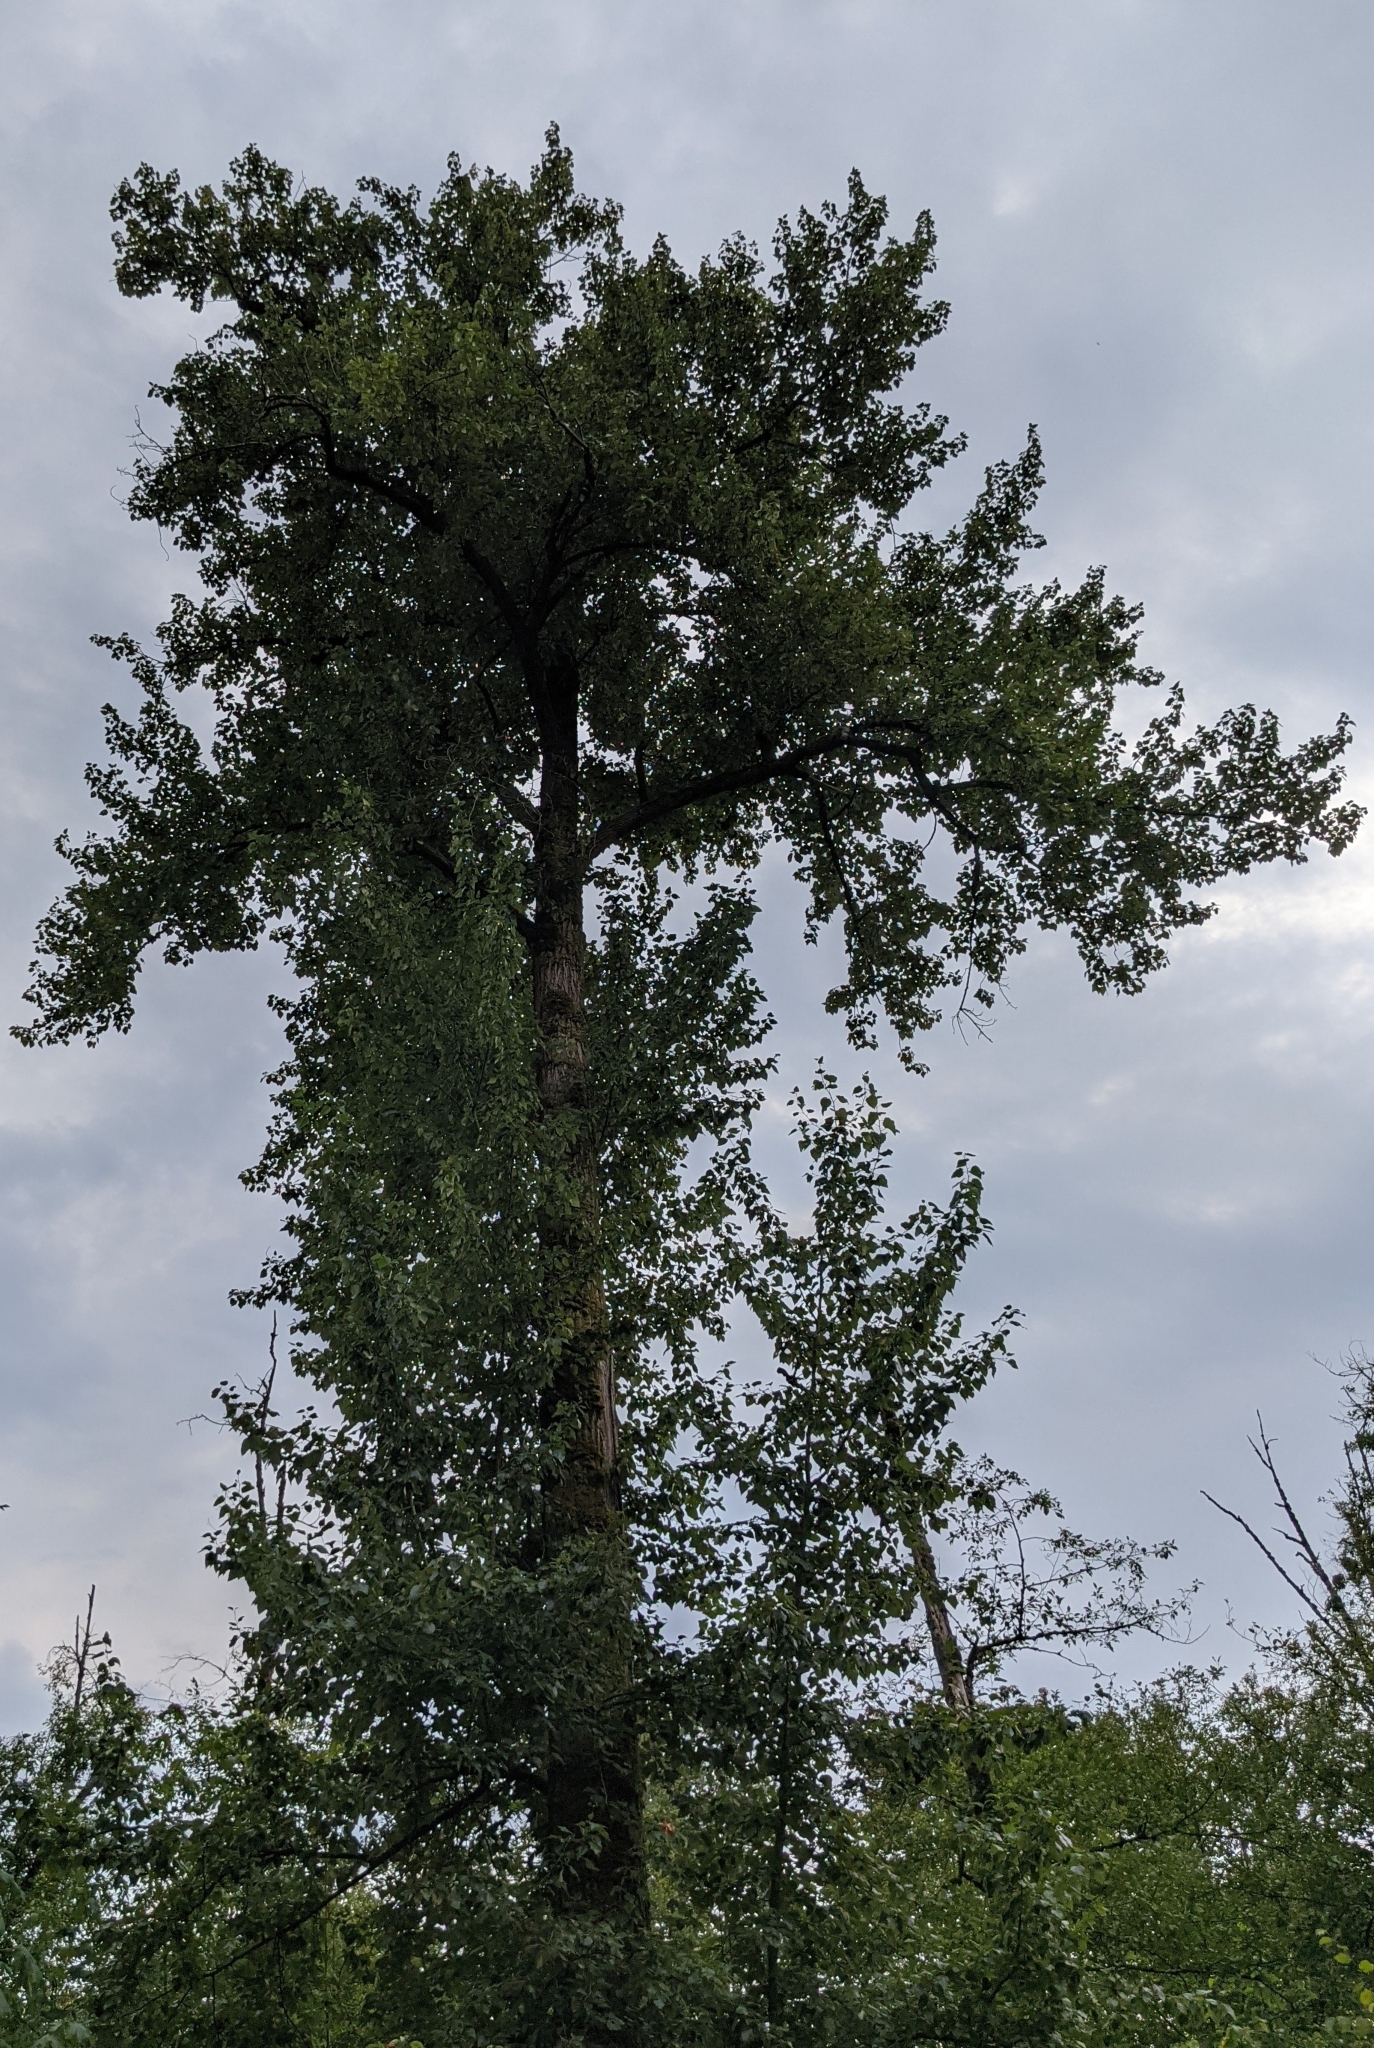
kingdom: Plantae
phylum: Tracheophyta
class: Magnoliopsida
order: Malpighiales
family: Salicaceae
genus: Populus
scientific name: Populus trichocarpa
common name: Black cottonwood
